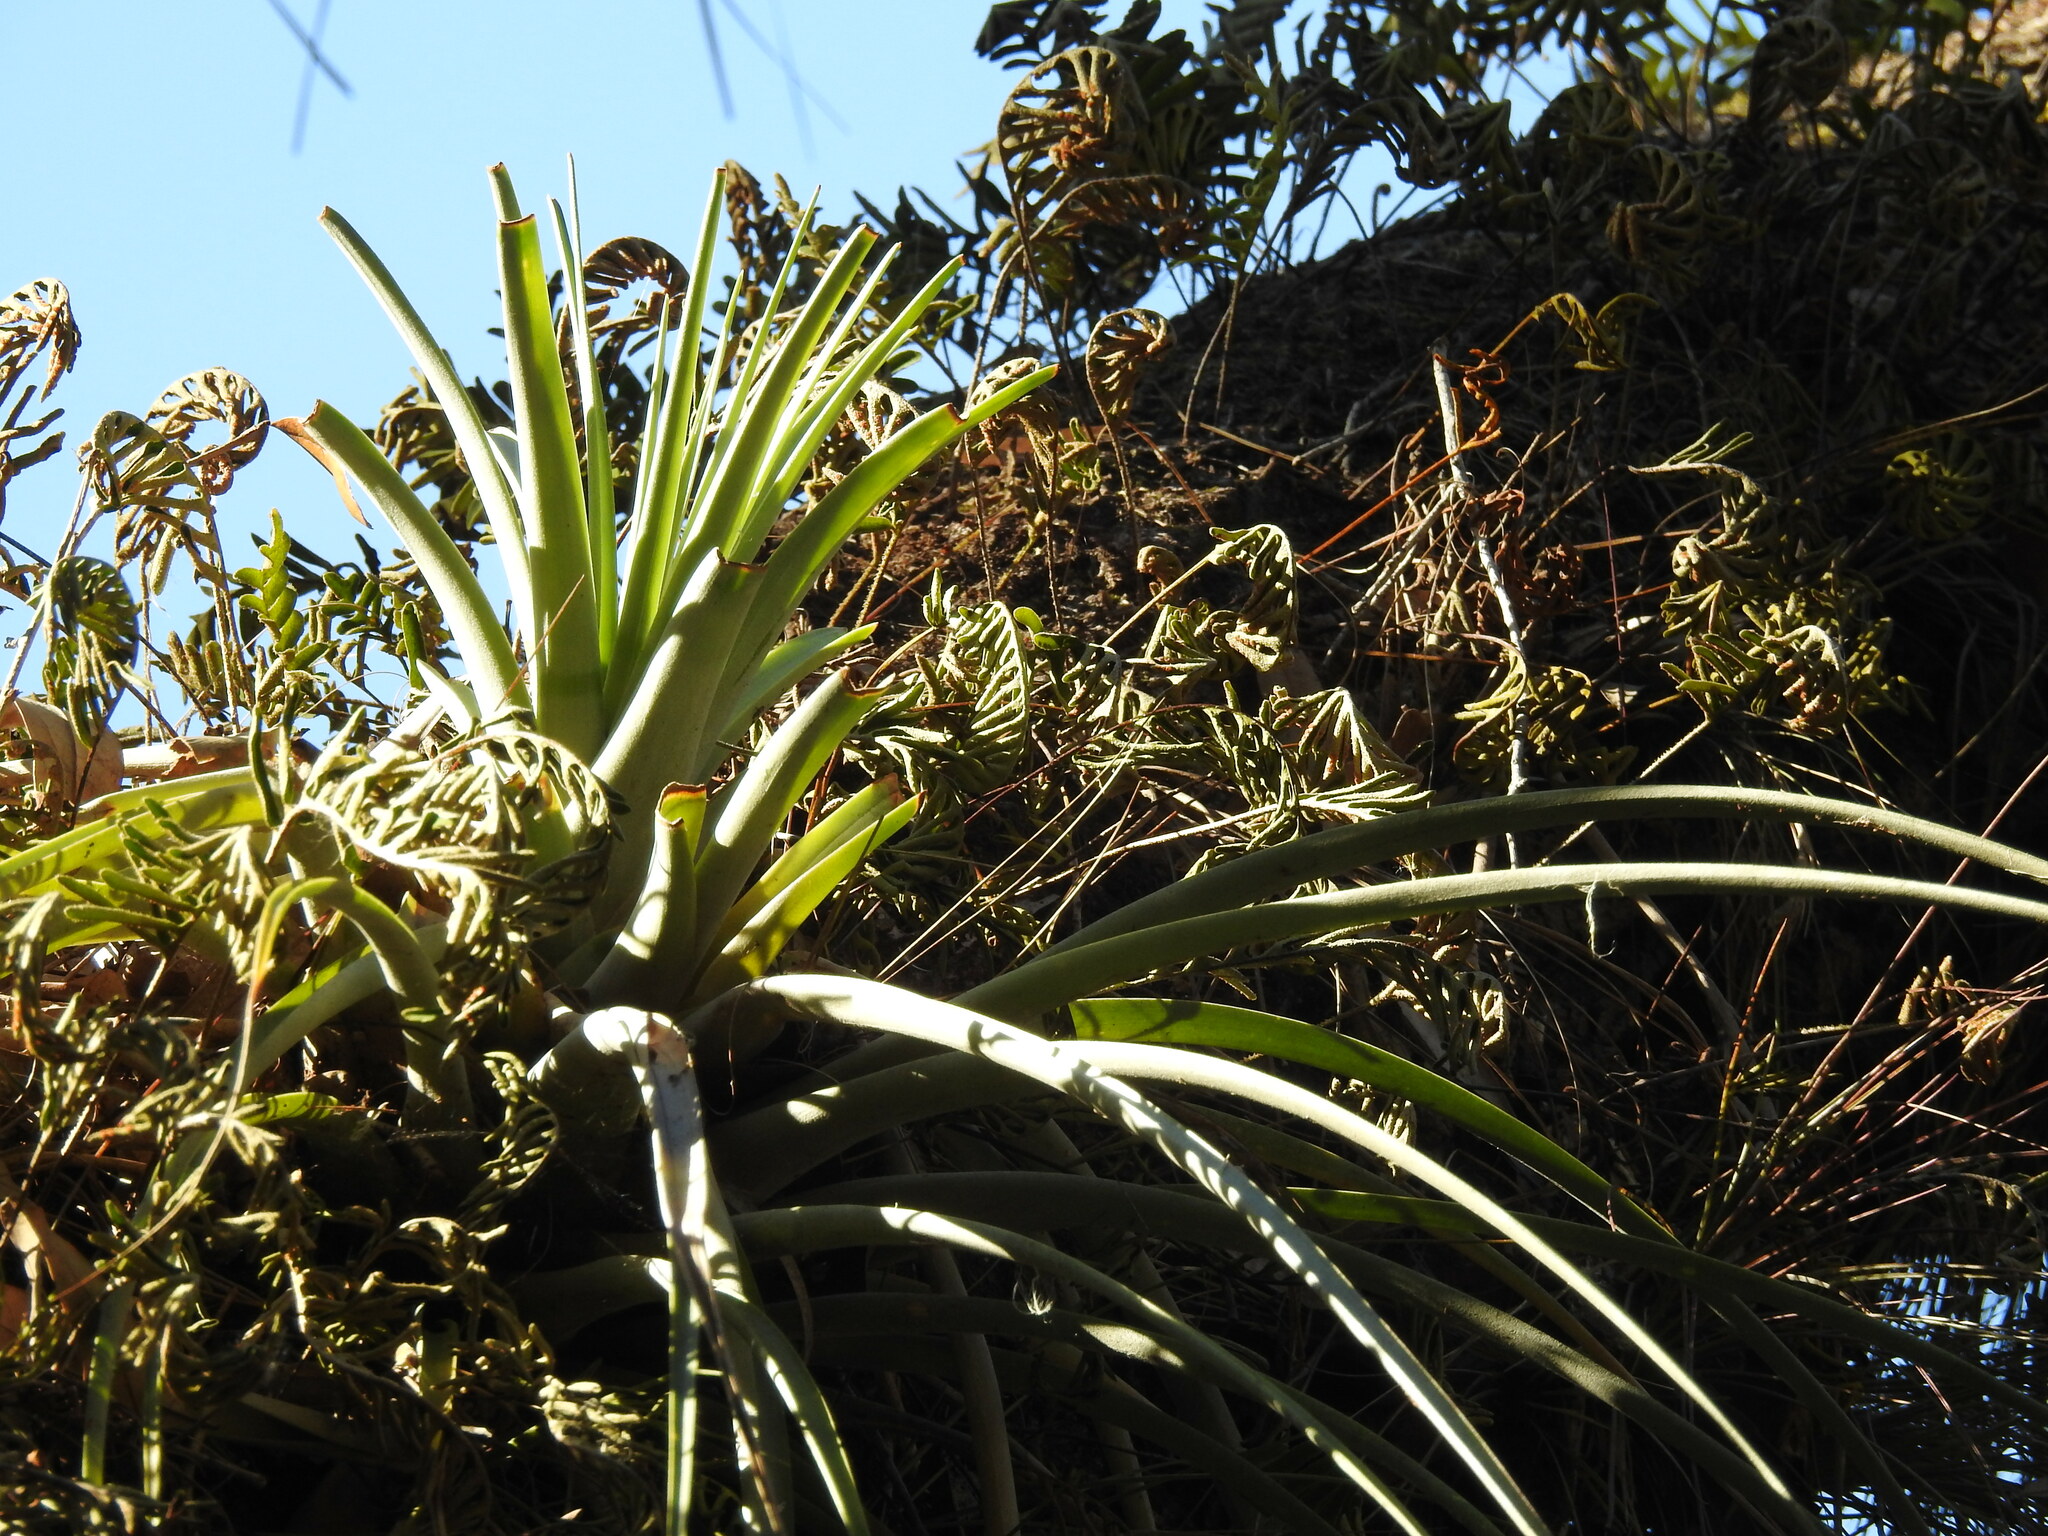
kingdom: Plantae
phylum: Tracheophyta
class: Liliopsida
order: Poales
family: Bromeliaceae
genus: Tillandsia
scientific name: Tillandsia utriculata
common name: Wild pine
